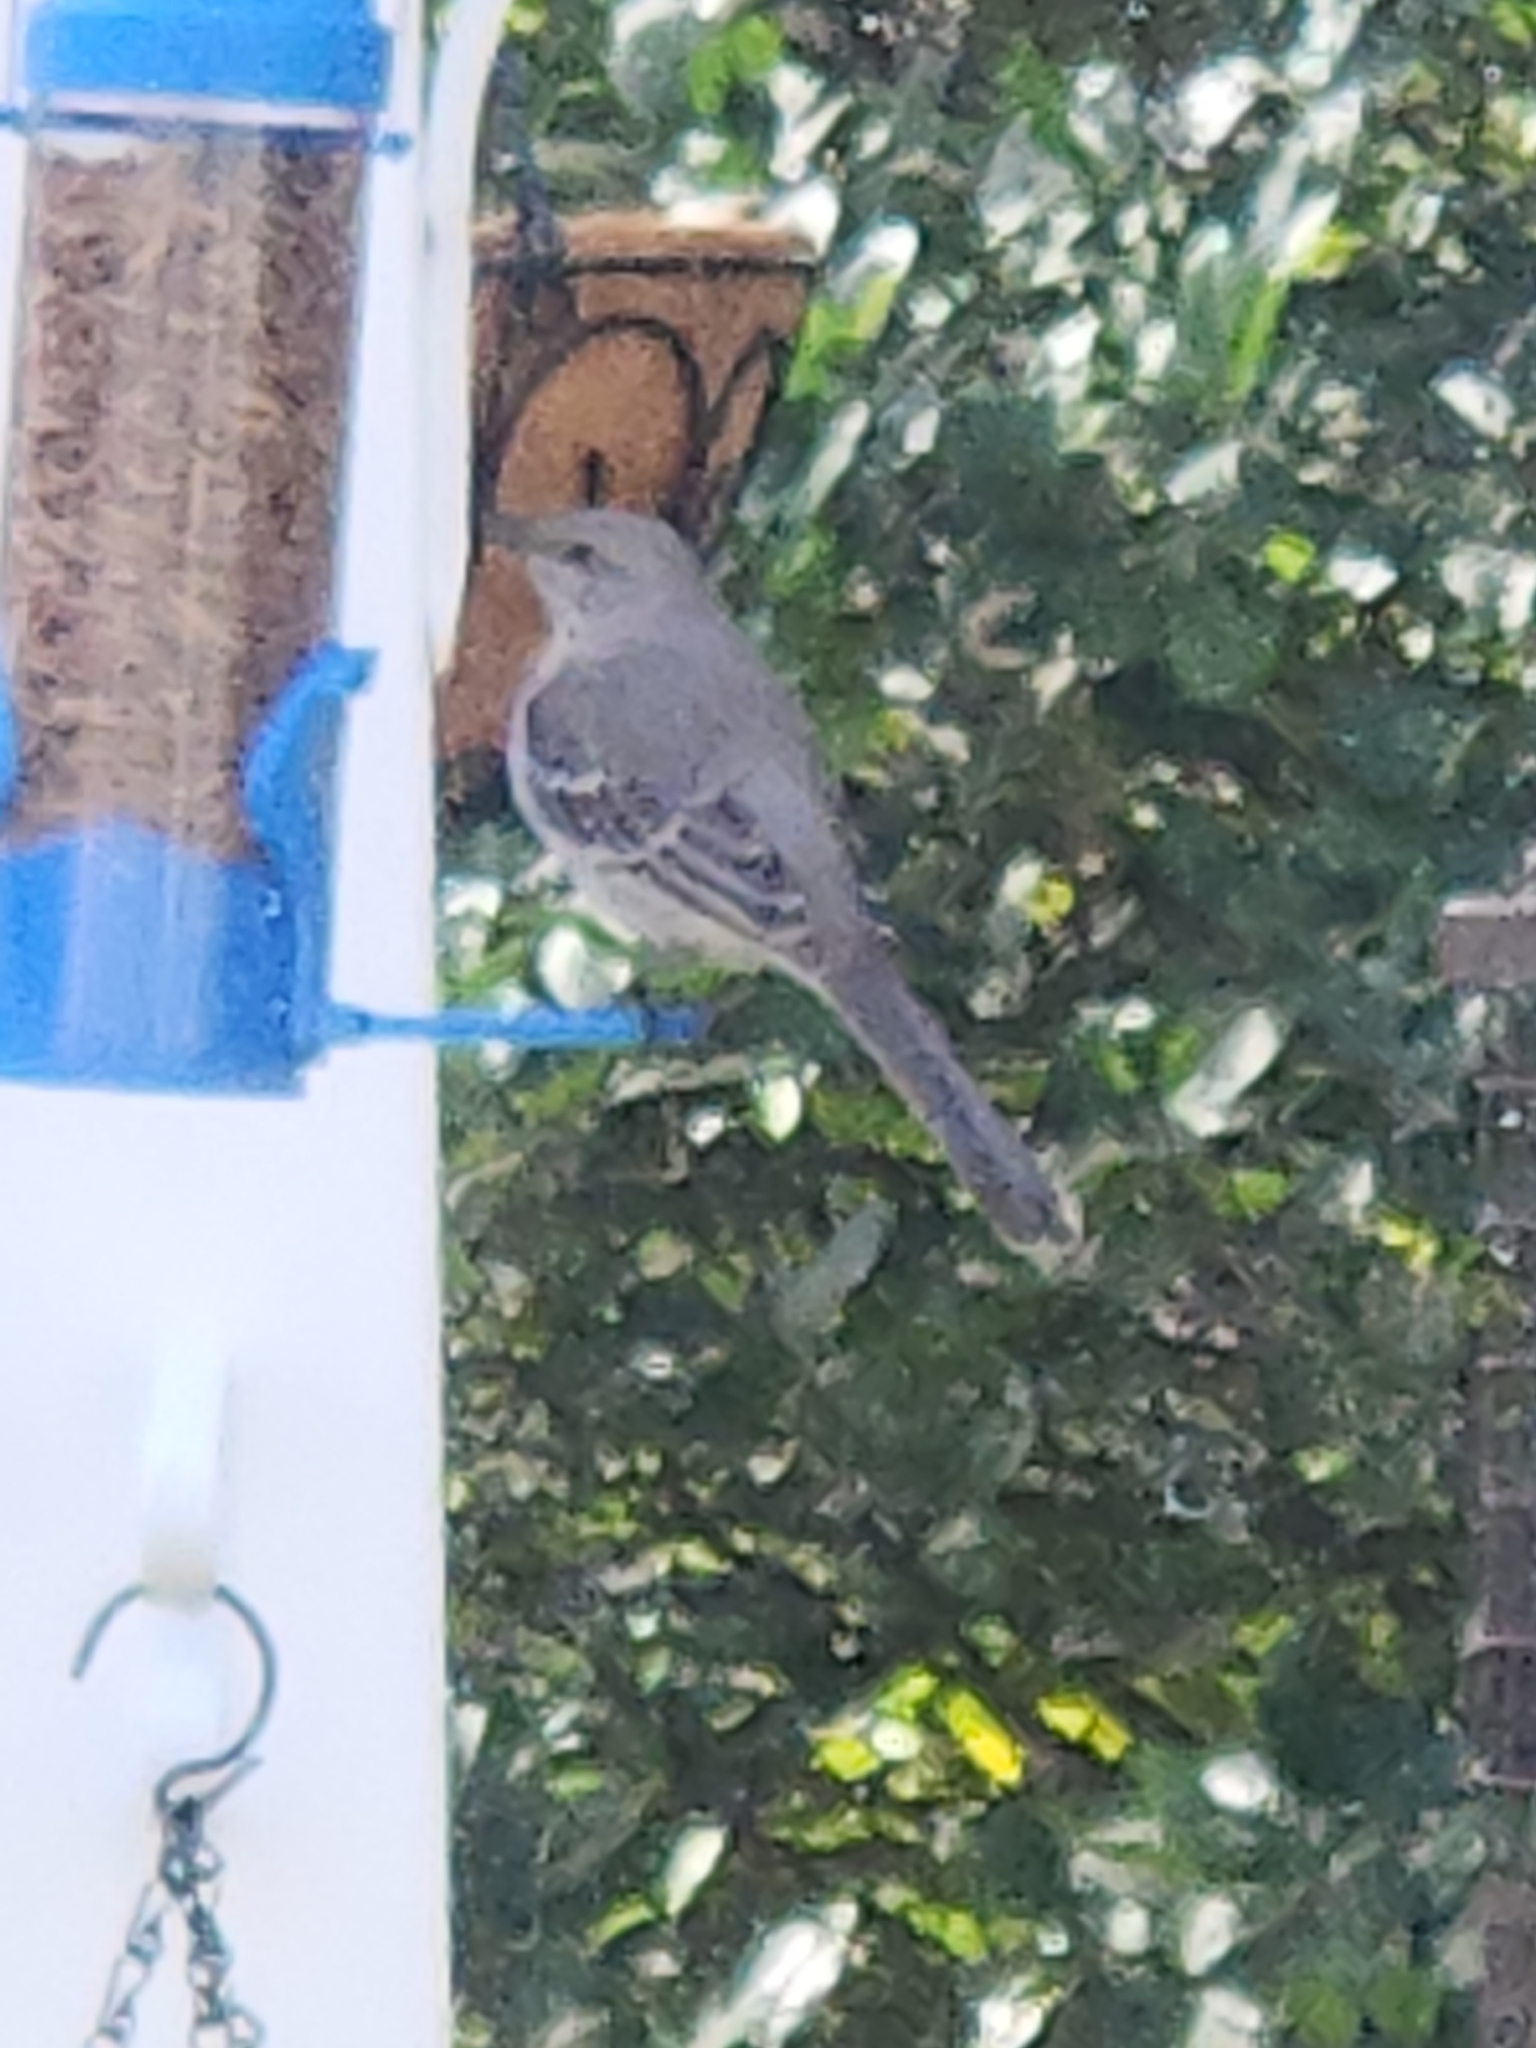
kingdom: Animalia
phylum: Chordata
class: Aves
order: Passeriformes
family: Mimidae
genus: Mimus
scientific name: Mimus polyglottos
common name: Northern mockingbird
